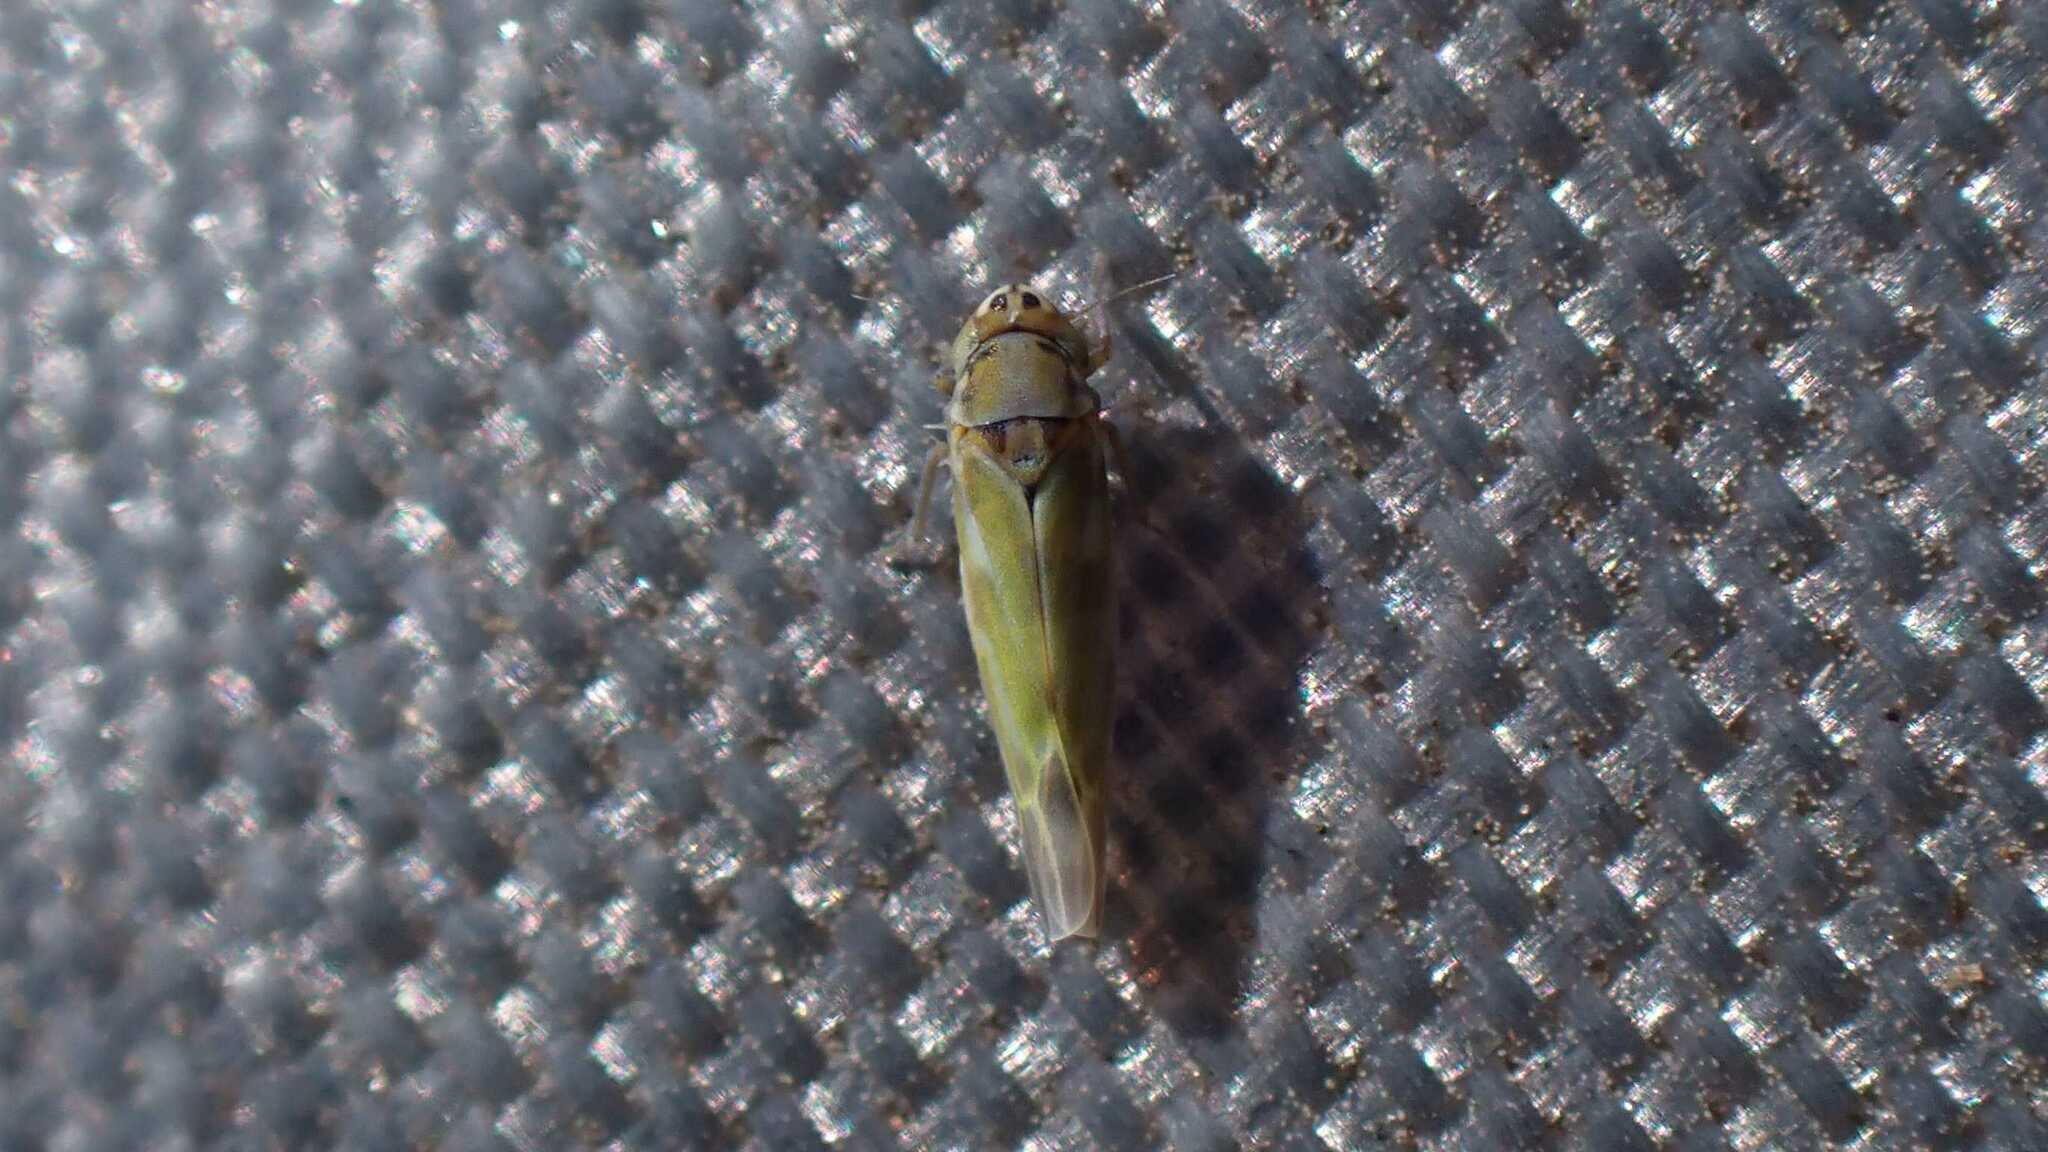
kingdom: Animalia
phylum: Arthropoda
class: Insecta
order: Hemiptera
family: Cicadellidae
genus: Frutioidia
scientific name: Frutioidia bisignata
